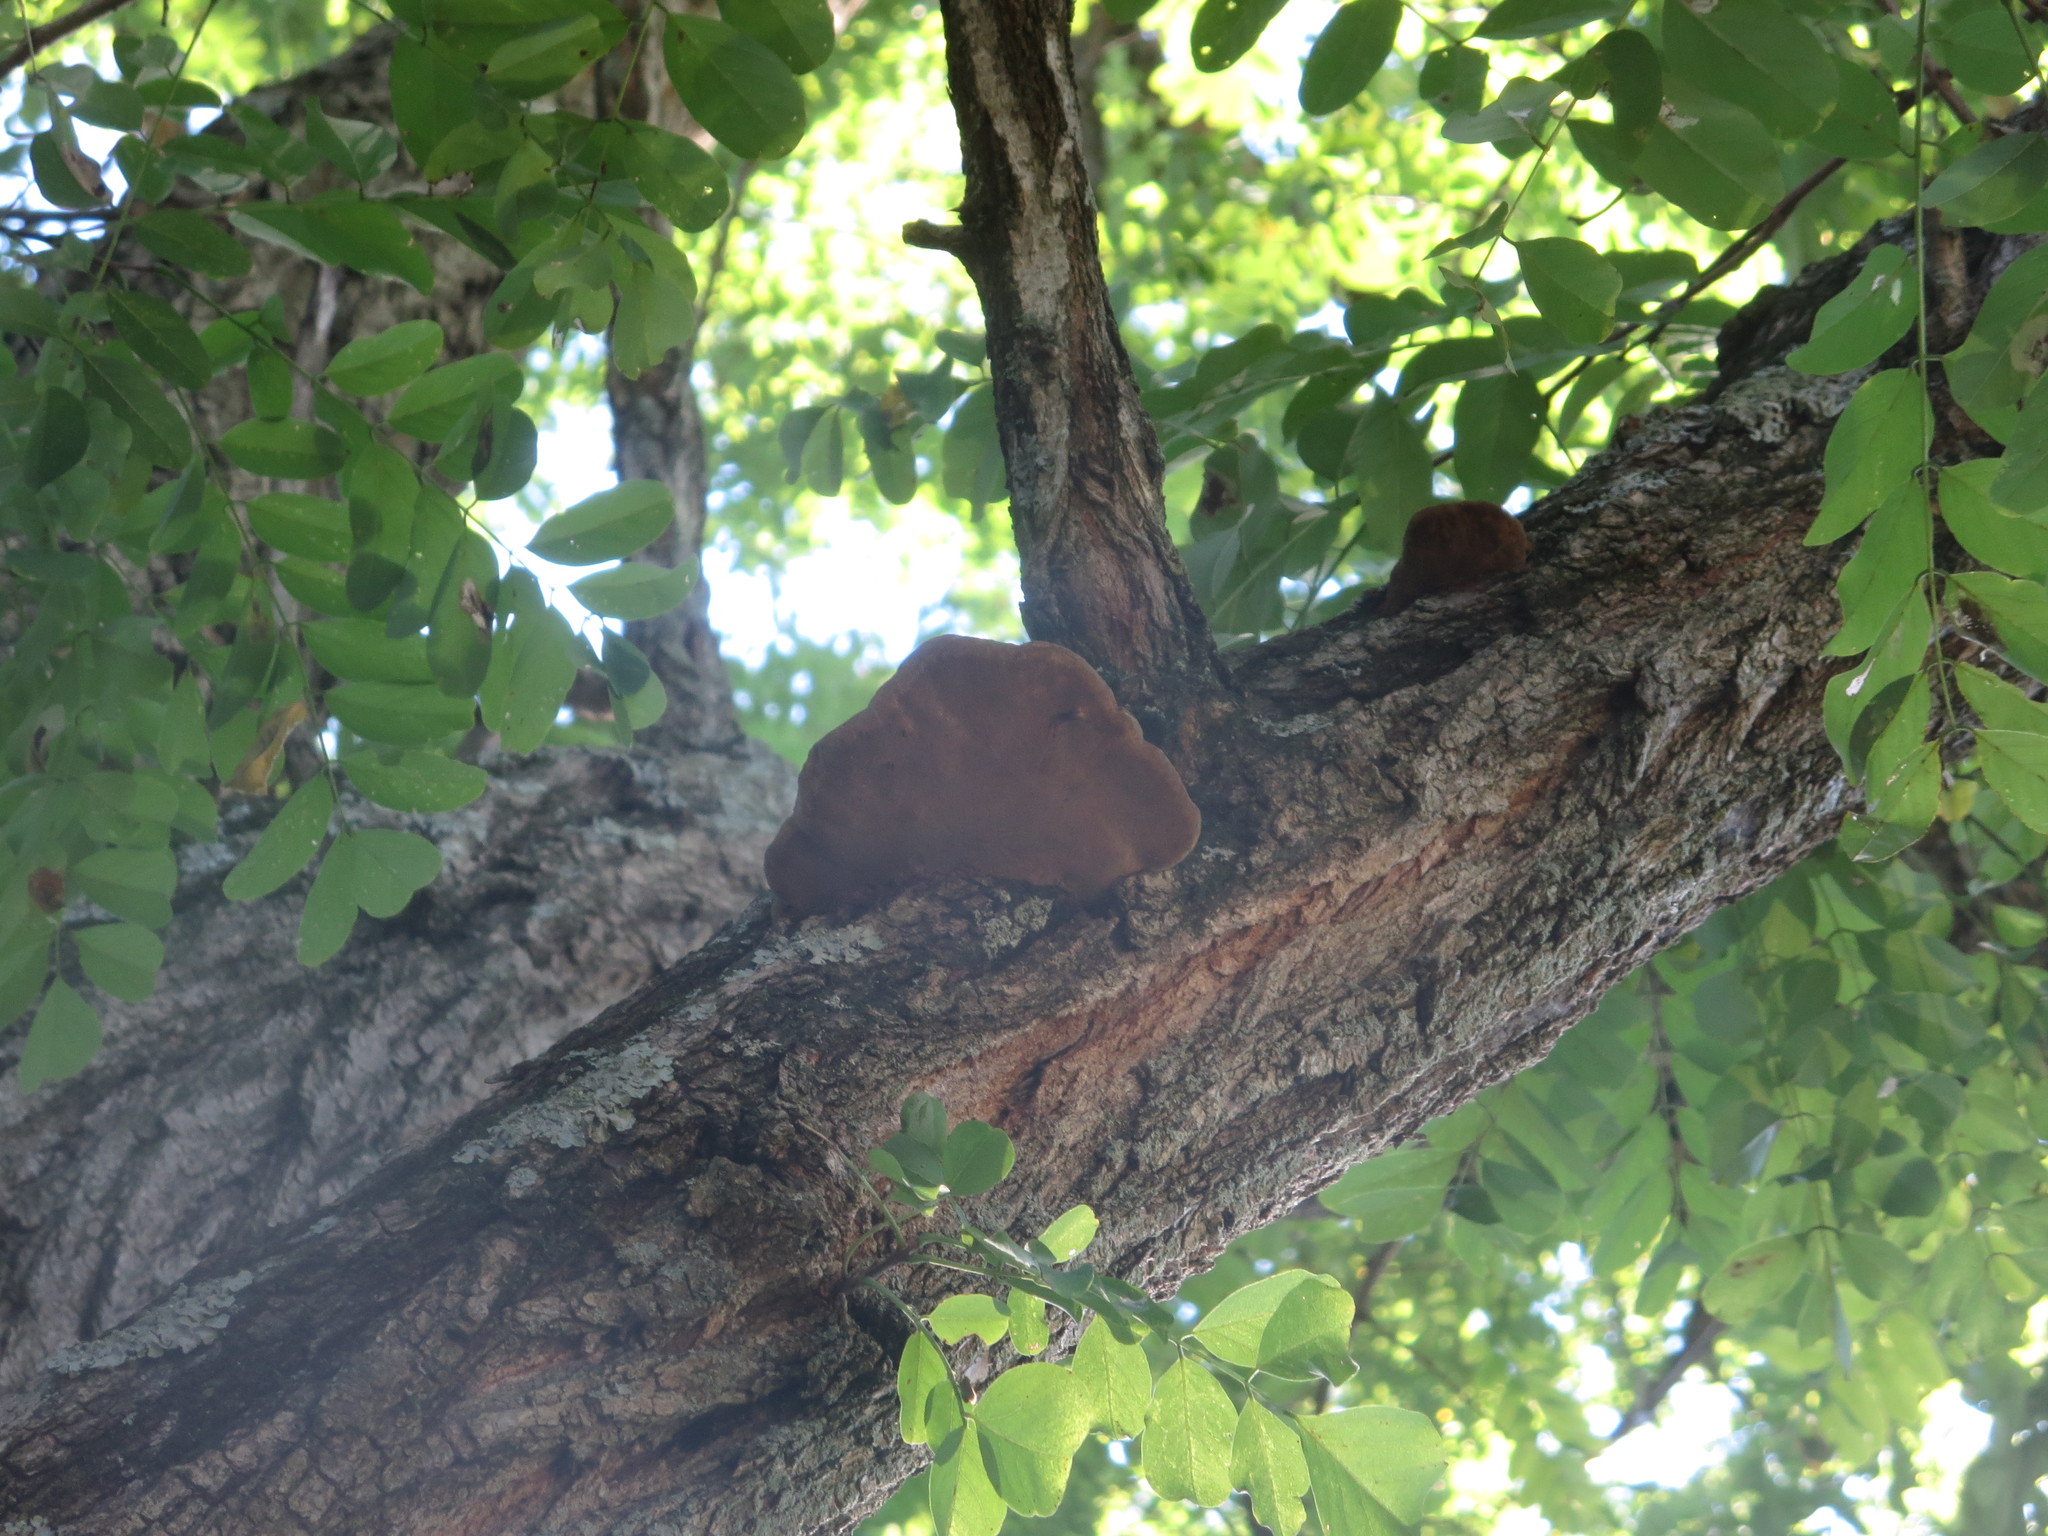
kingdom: Fungi
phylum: Basidiomycota
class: Agaricomycetes
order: Hymenochaetales
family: Hymenochaetaceae
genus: Phellinus
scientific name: Phellinus robiniae
